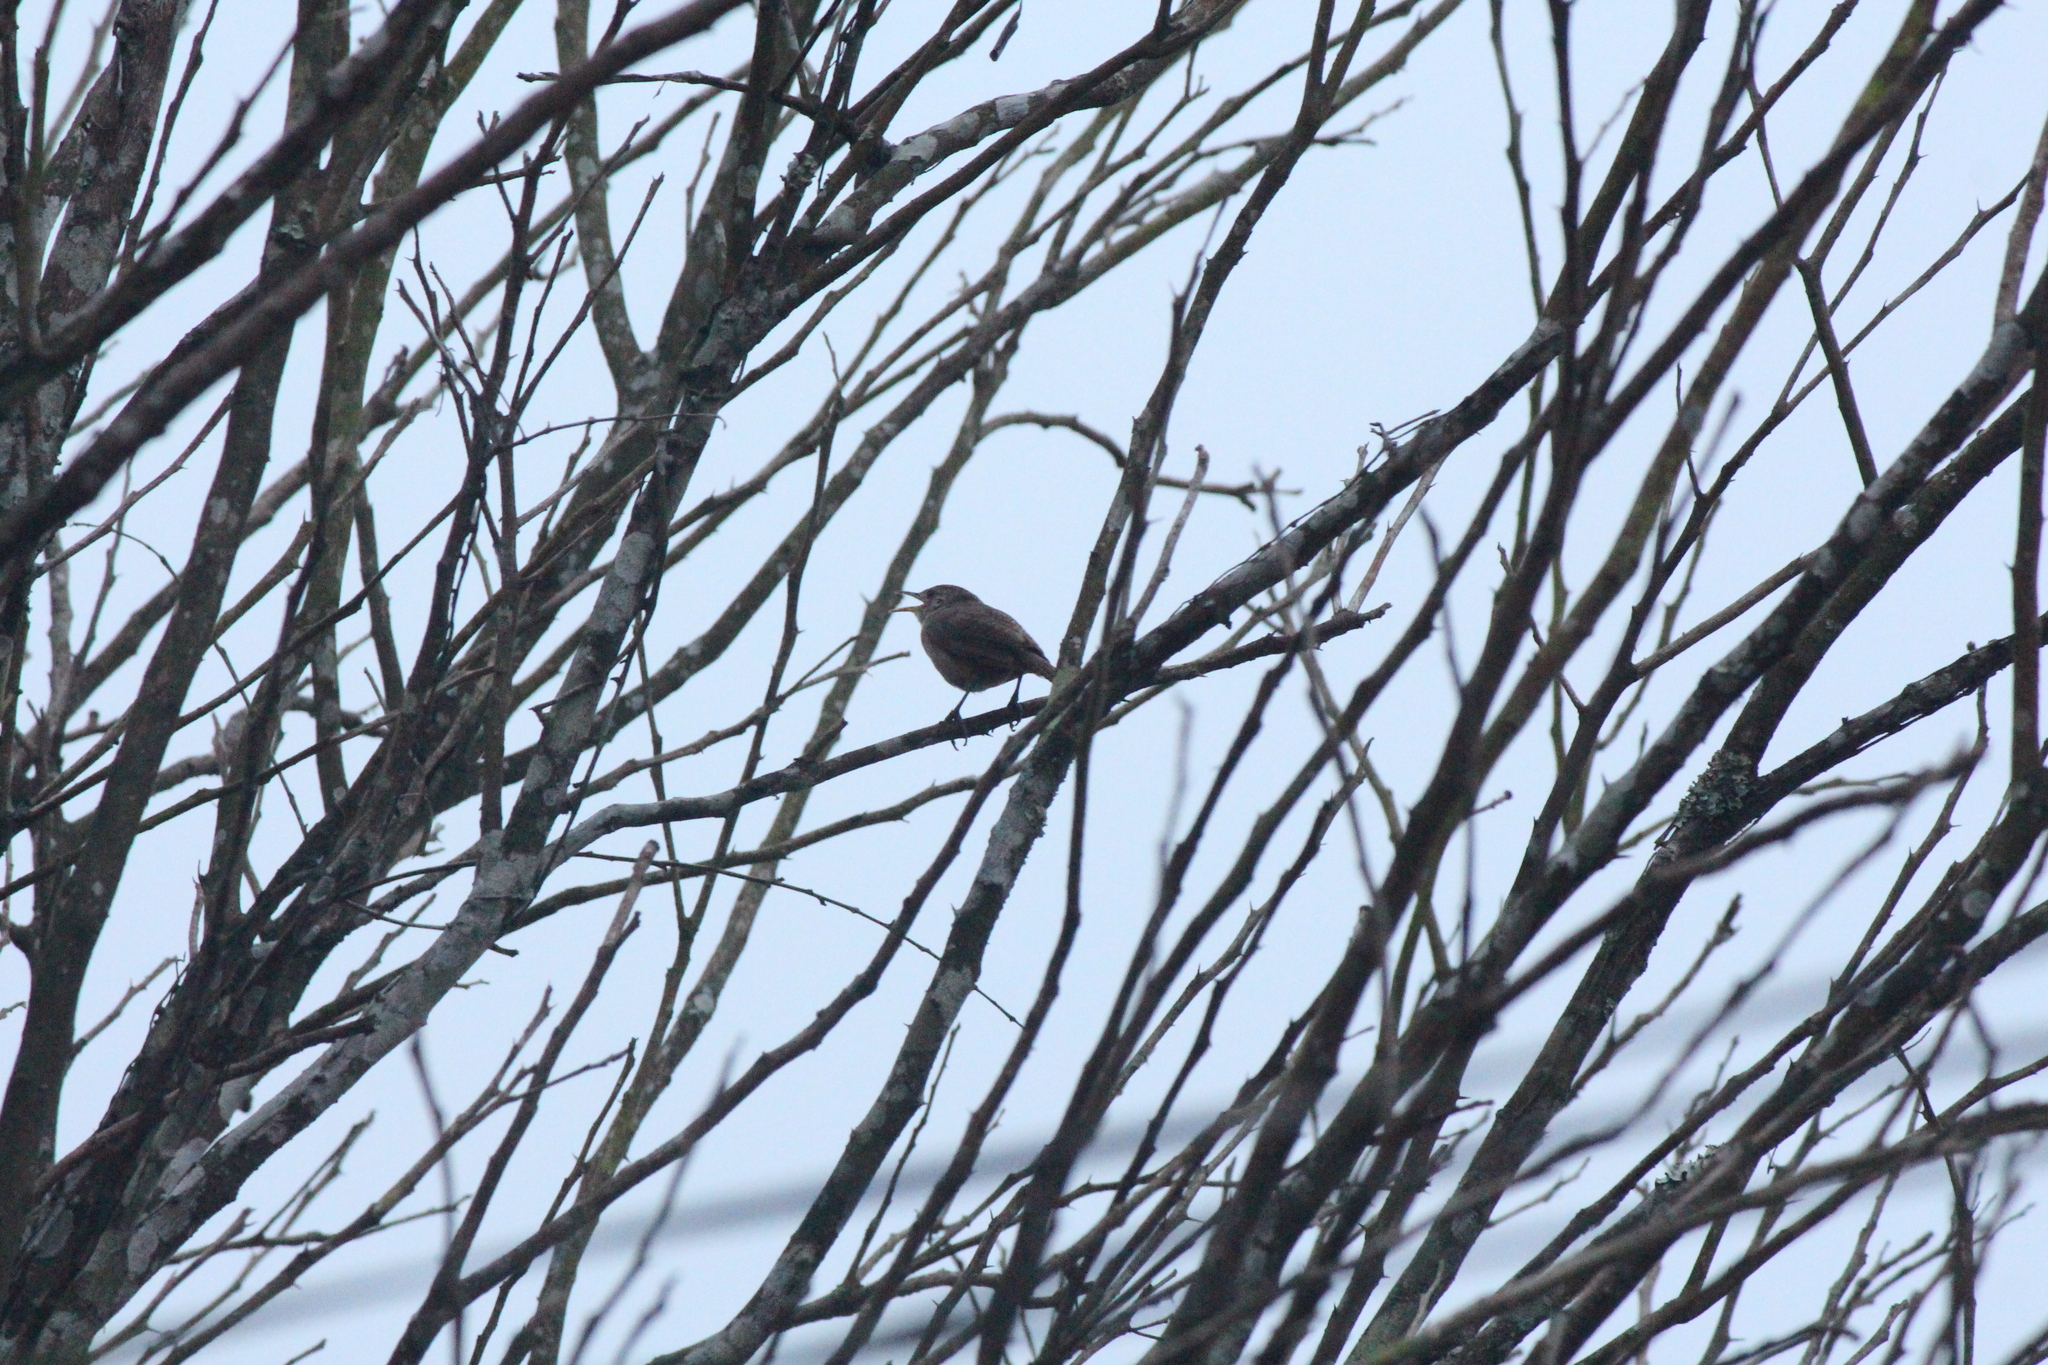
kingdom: Animalia
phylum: Chordata
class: Aves
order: Passeriformes
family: Troglodytidae
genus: Troglodytes
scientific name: Troglodytes aedon
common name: House wren
